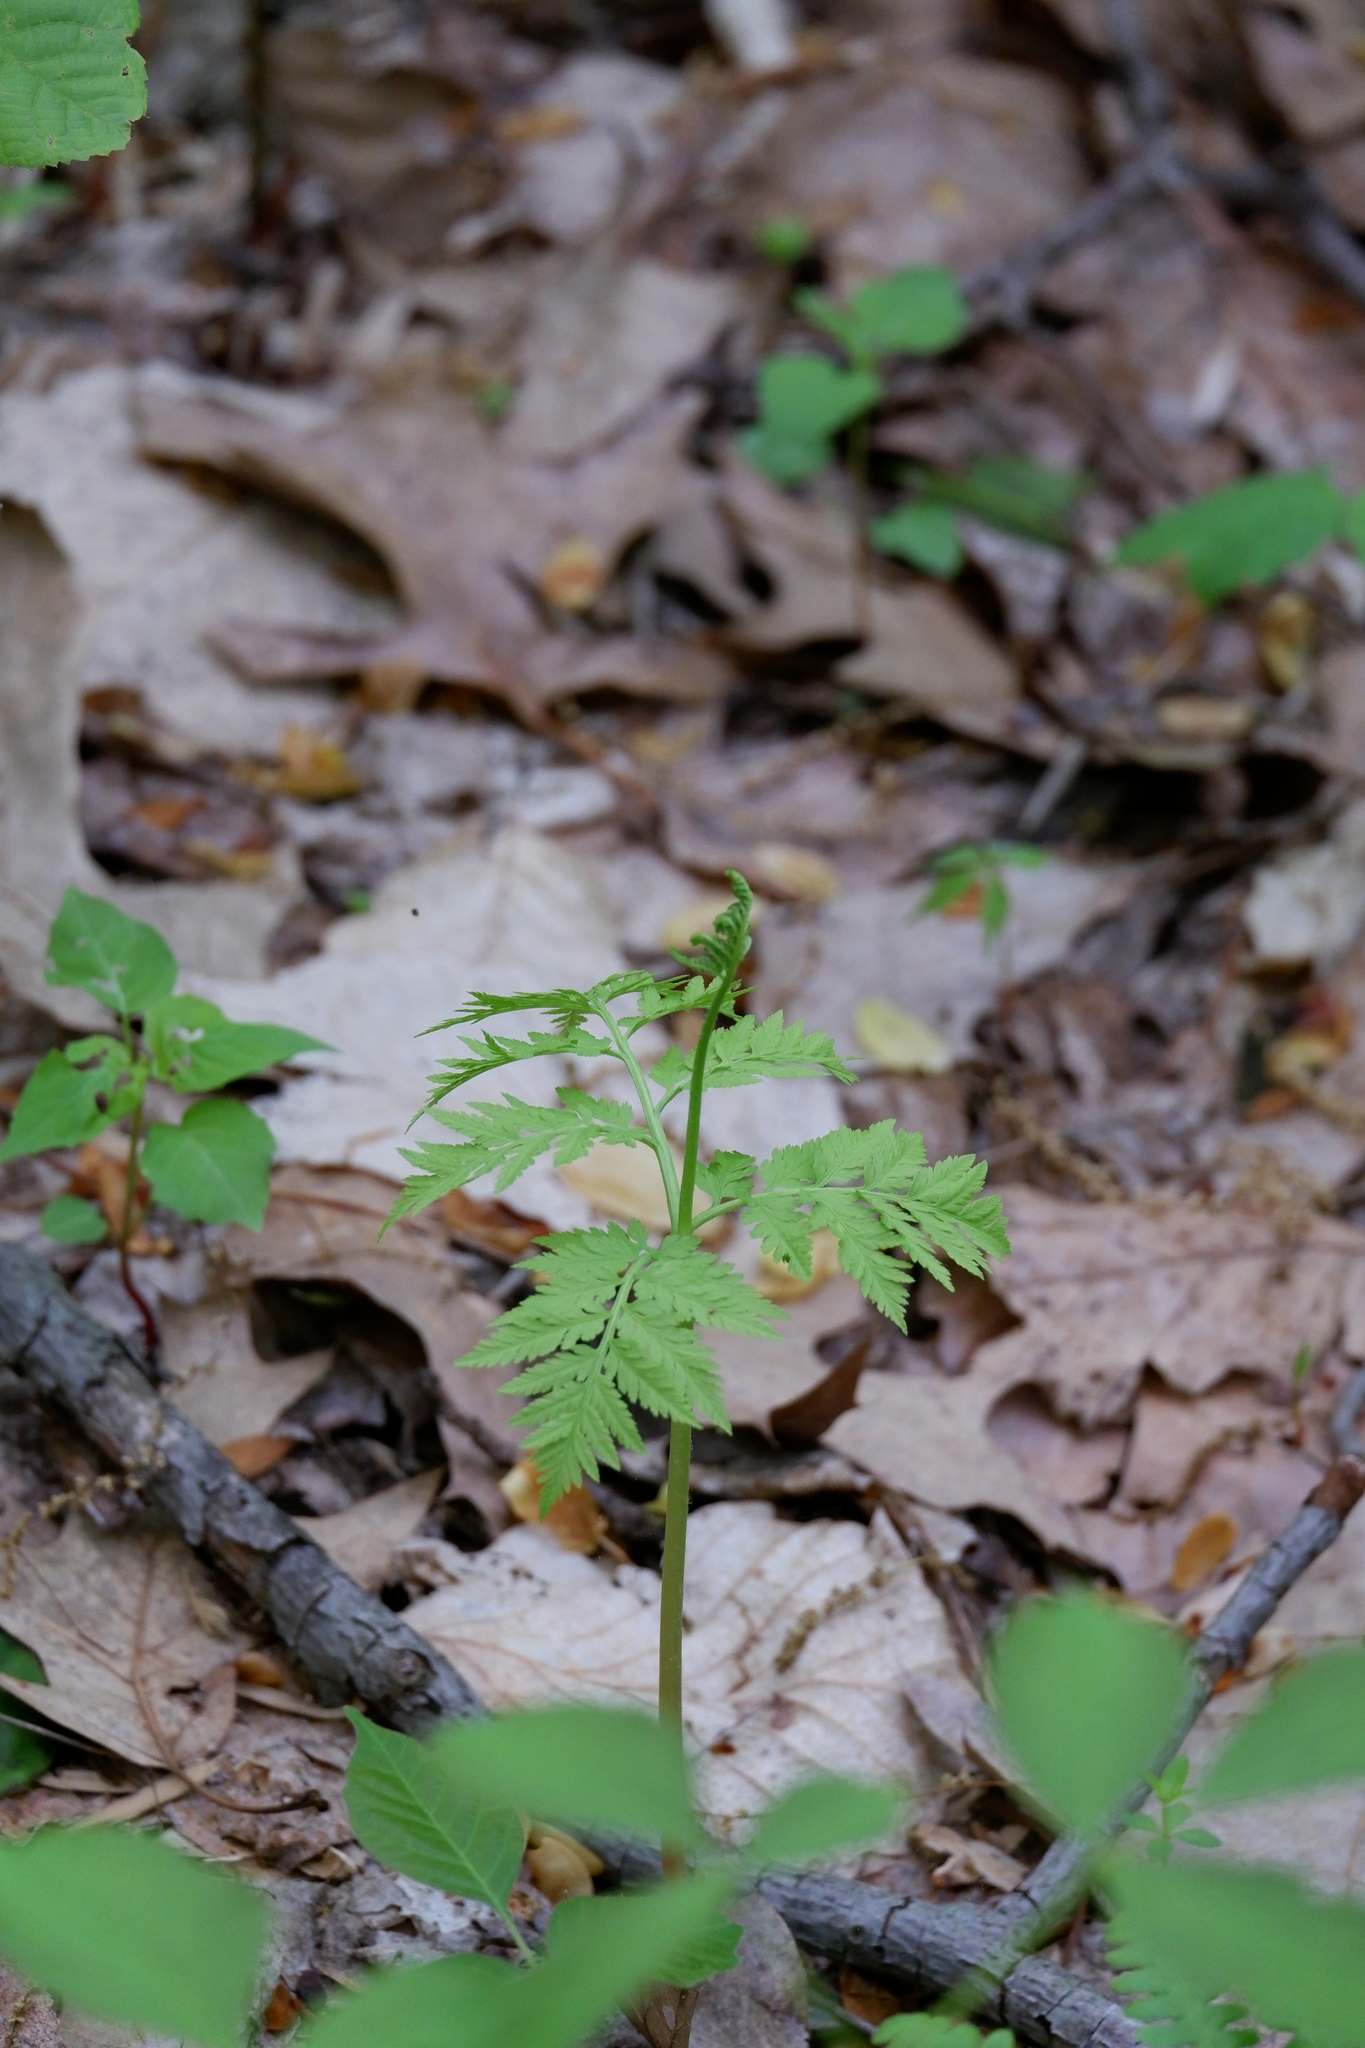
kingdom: Plantae
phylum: Tracheophyta
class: Polypodiopsida
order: Ophioglossales
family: Ophioglossaceae
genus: Botrypus
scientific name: Botrypus virginianus
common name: Common grapefern
